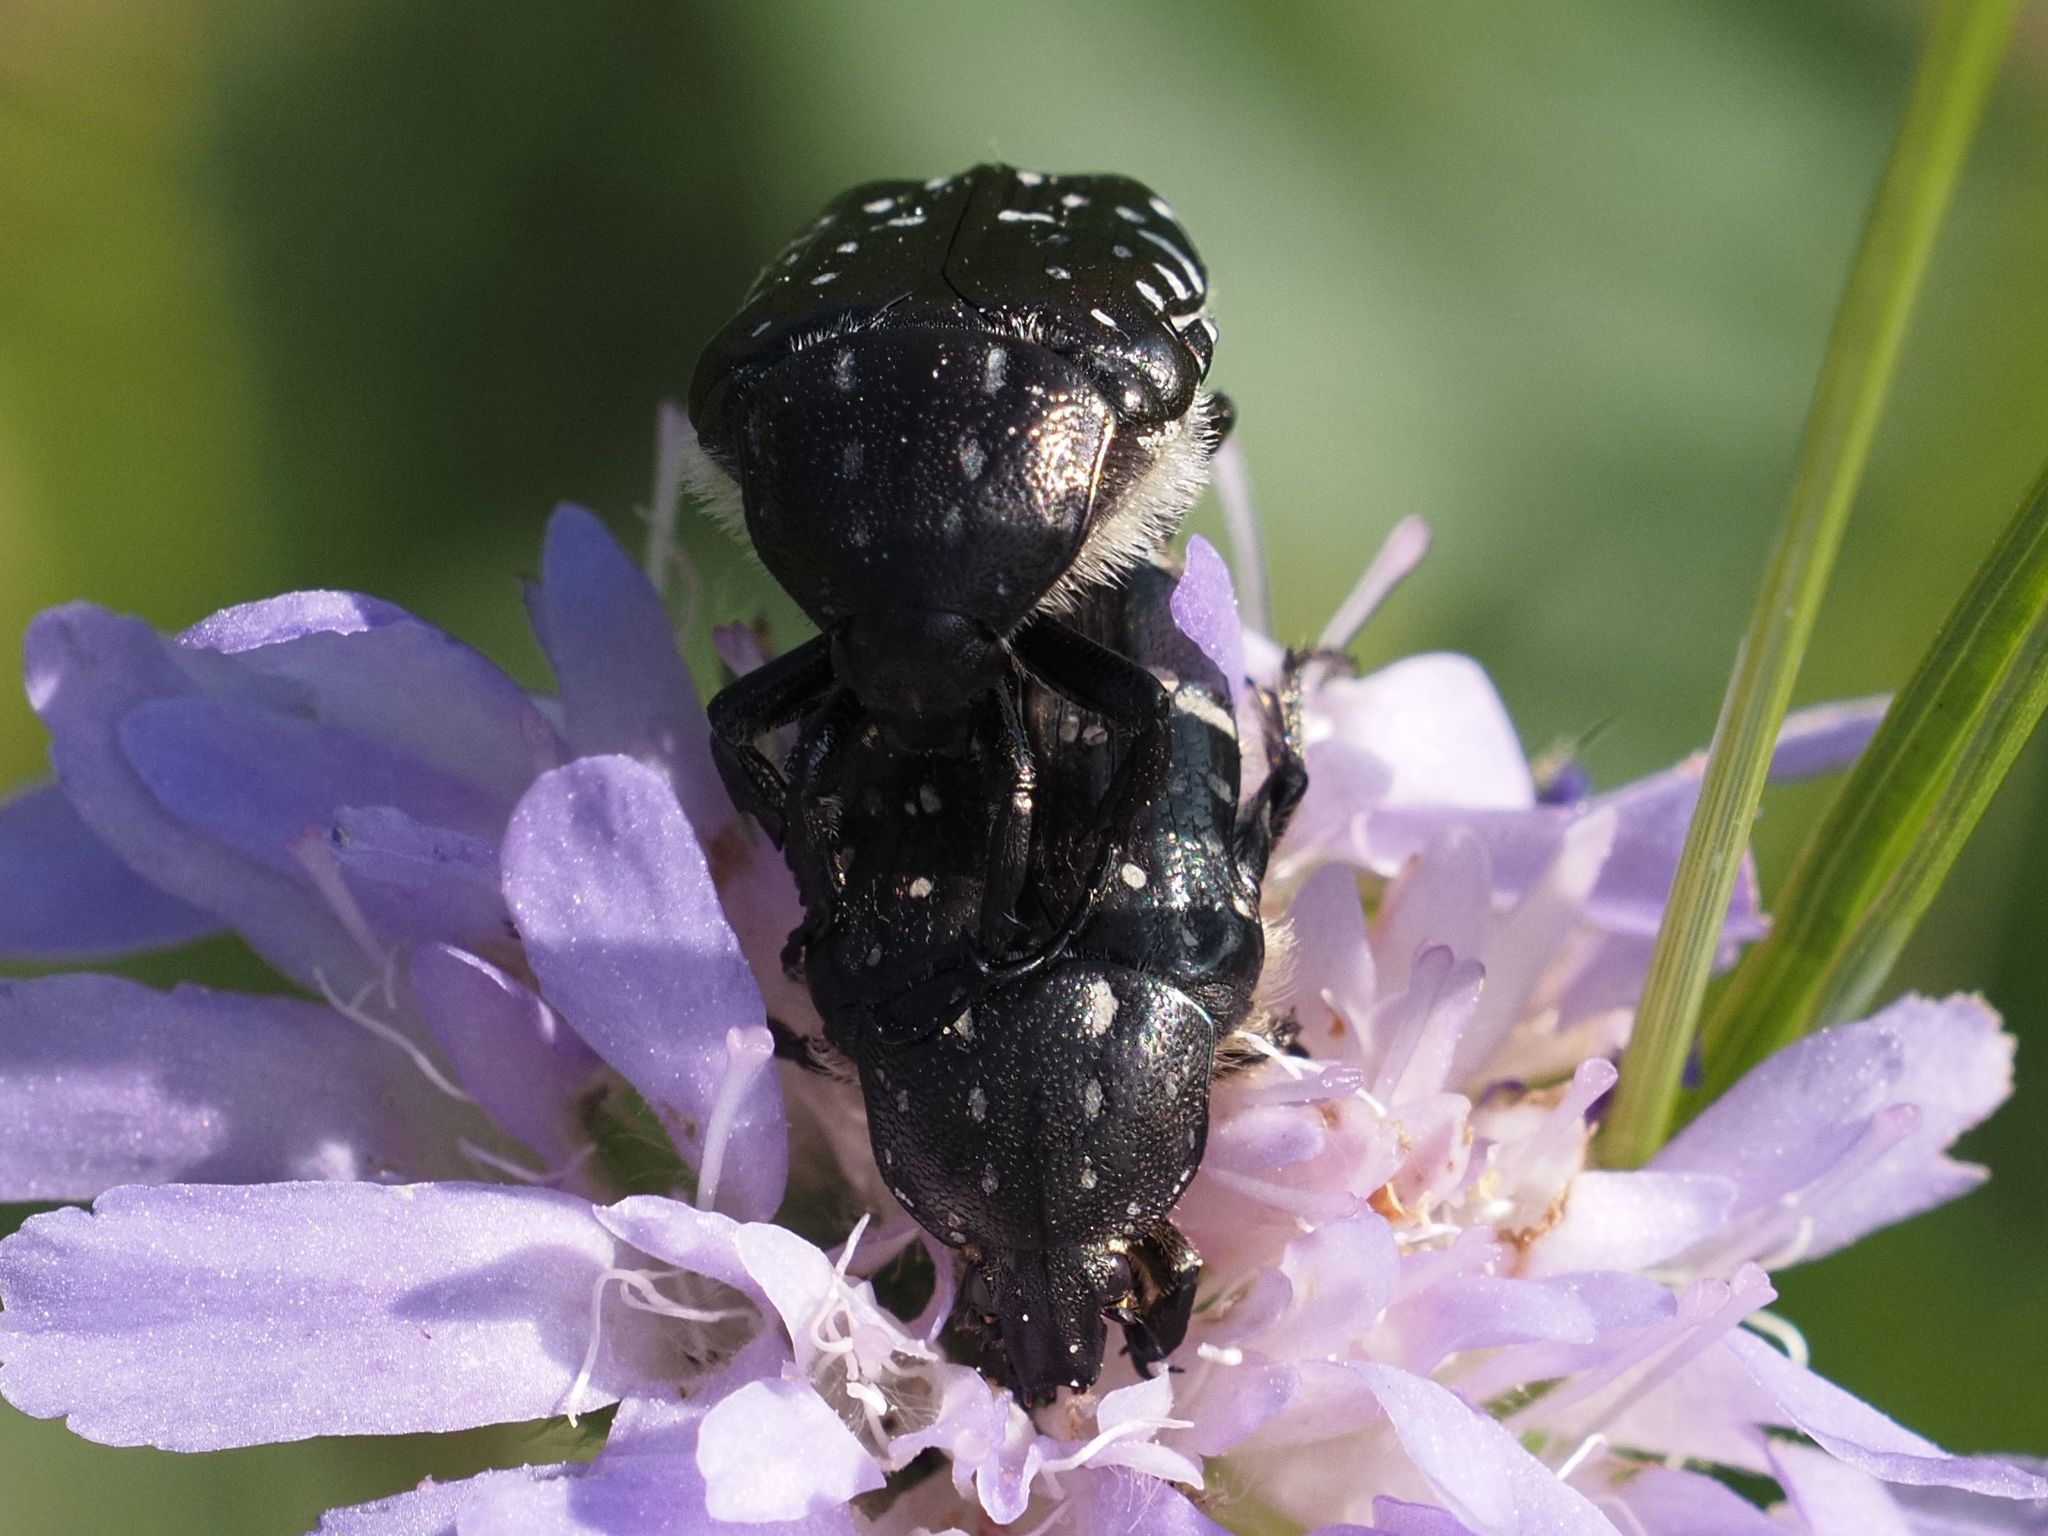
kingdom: Animalia
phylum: Arthropoda
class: Insecta
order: Coleoptera
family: Scarabaeidae
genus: Oxythyrea
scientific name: Oxythyrea funesta
